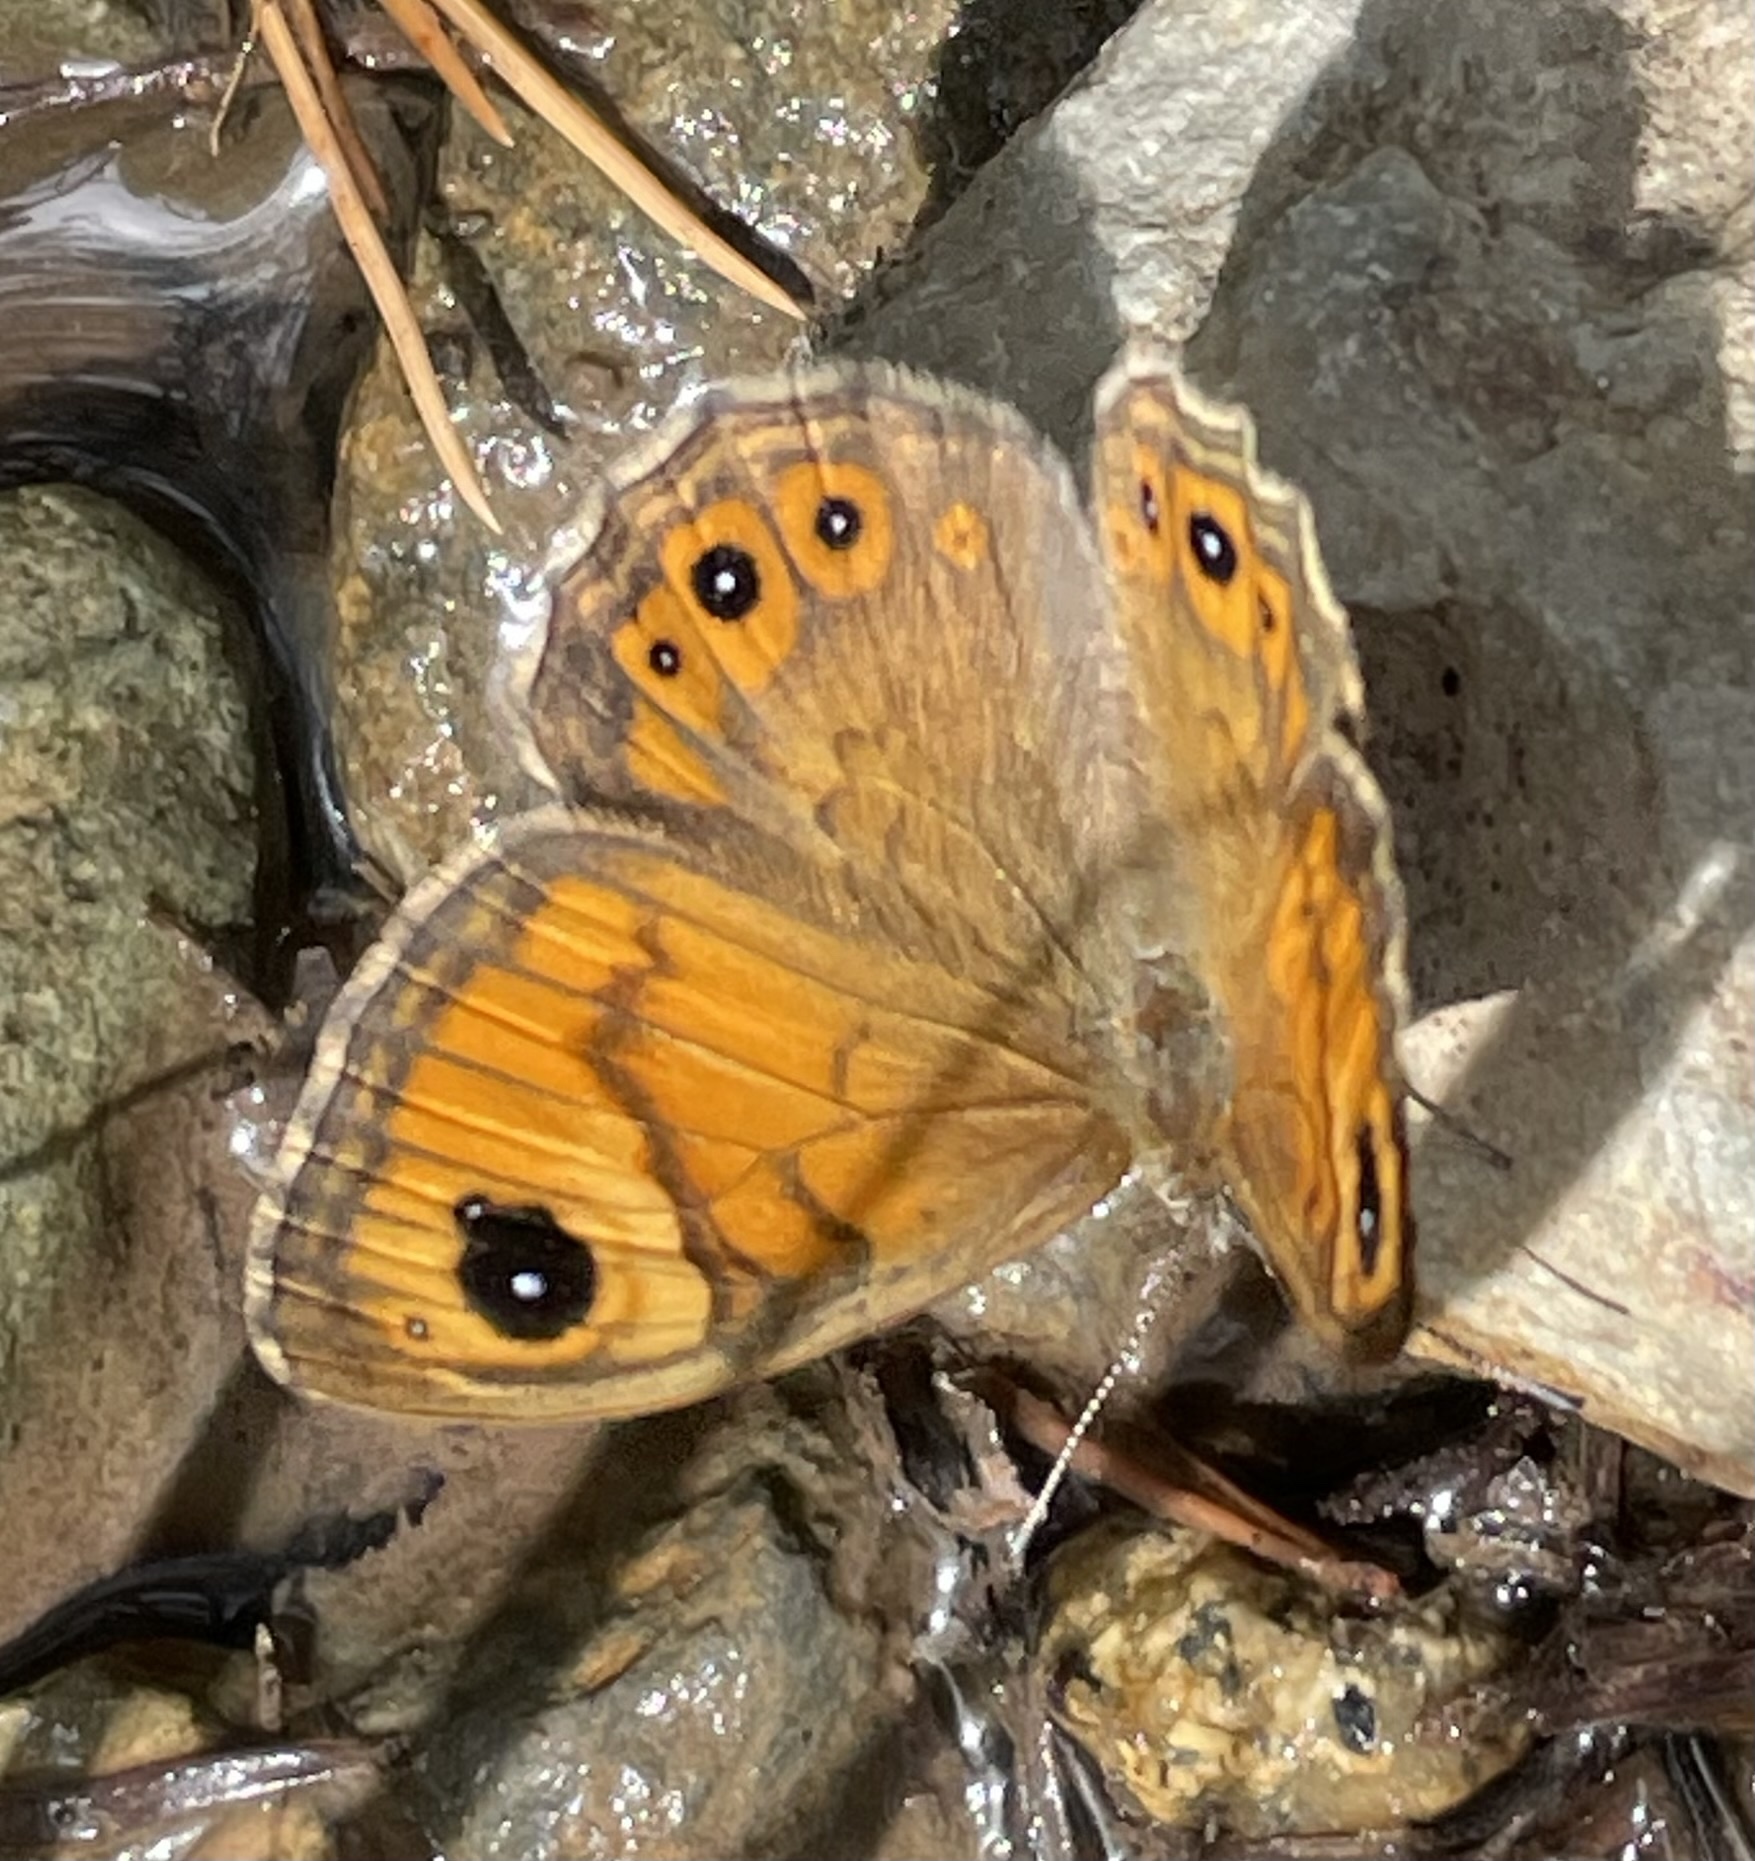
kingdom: Animalia
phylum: Arthropoda
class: Insecta
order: Lepidoptera
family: Nymphalidae
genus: Pararge
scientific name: Pararge Lasiommata maera
